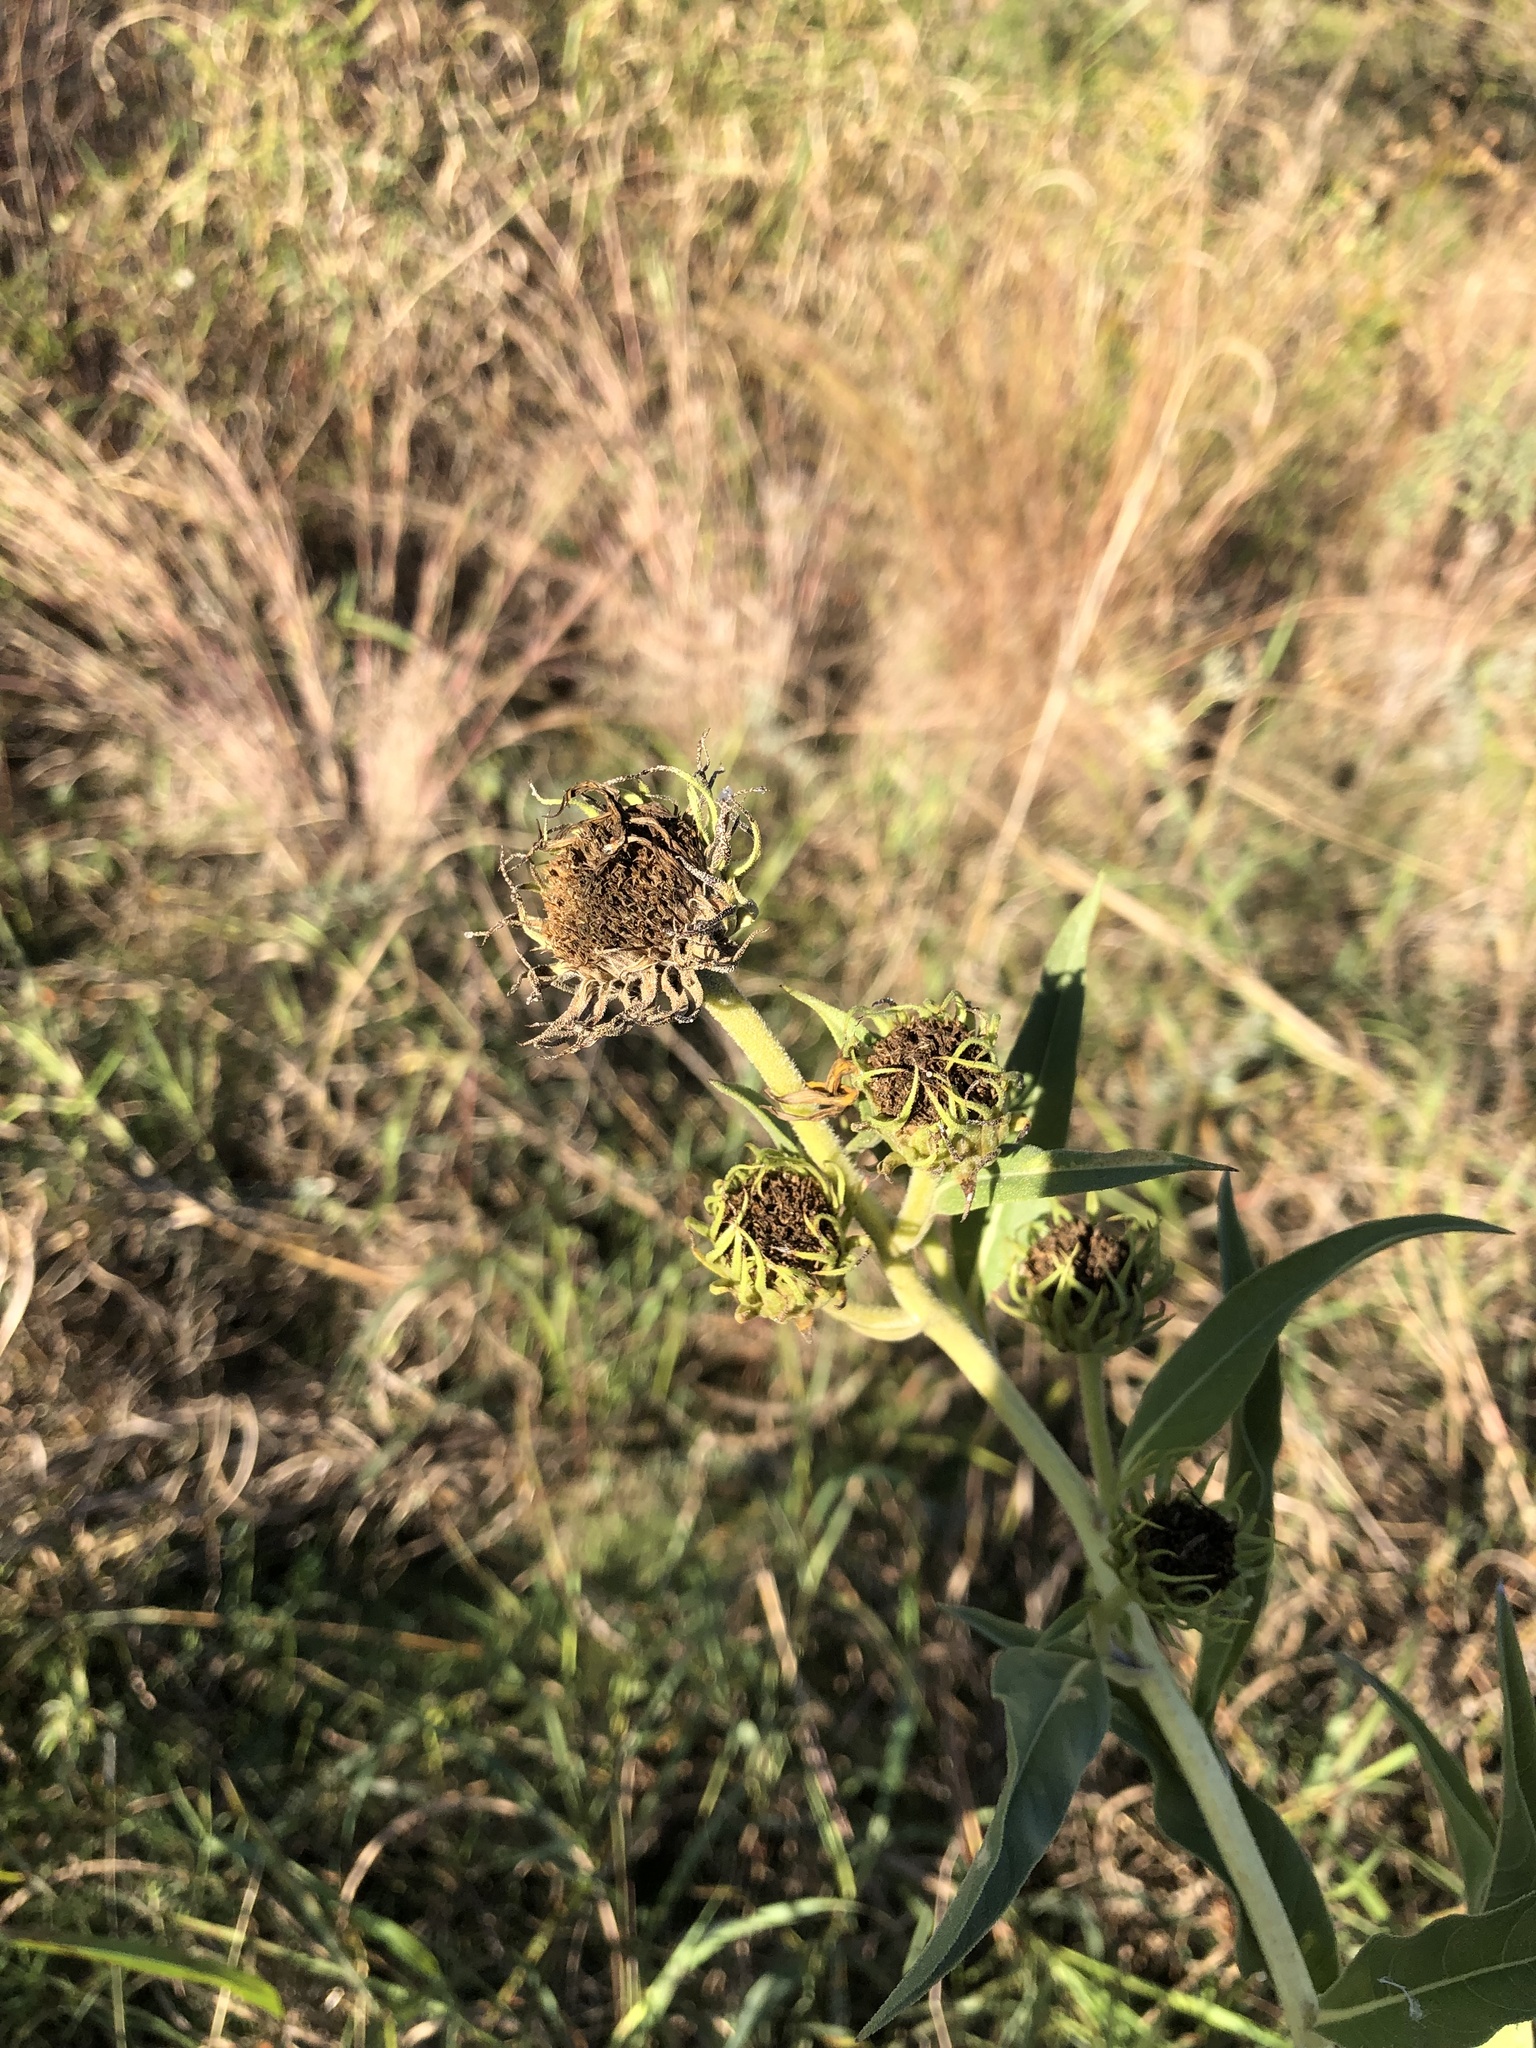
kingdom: Plantae
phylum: Tracheophyta
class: Magnoliopsida
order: Asterales
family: Asteraceae
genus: Helianthus
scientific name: Helianthus maximiliani
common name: Maximilian's sunflower
